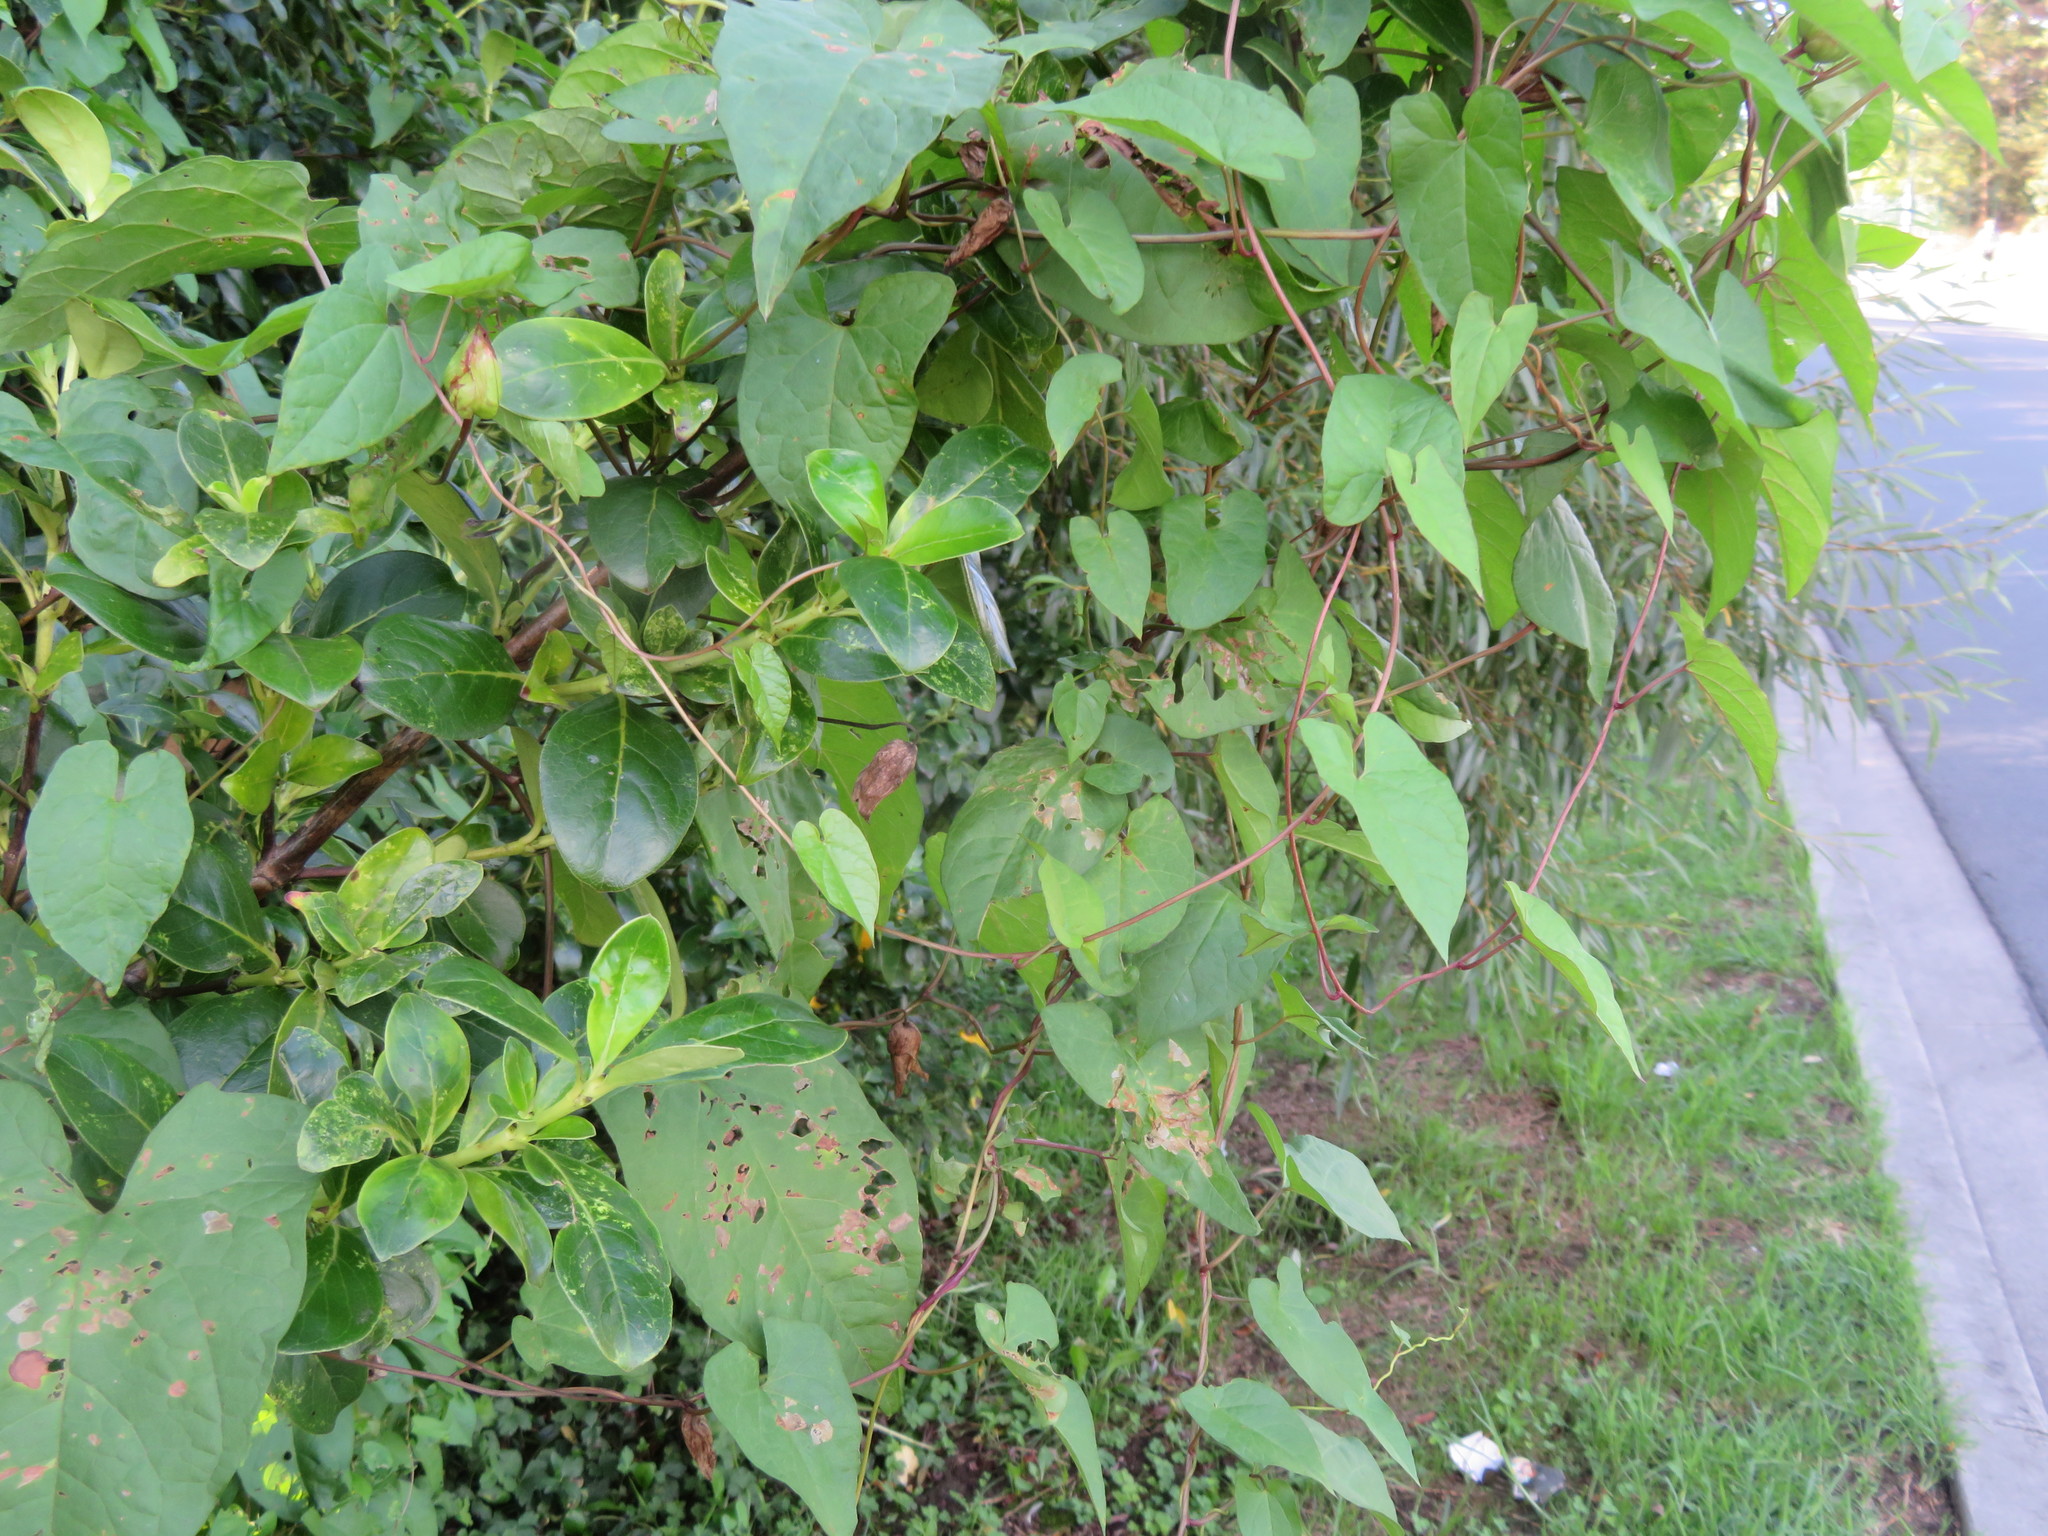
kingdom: Plantae
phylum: Tracheophyta
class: Magnoliopsida
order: Gentianales
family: Rubiaceae
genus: Coprosma
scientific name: Coprosma robusta
